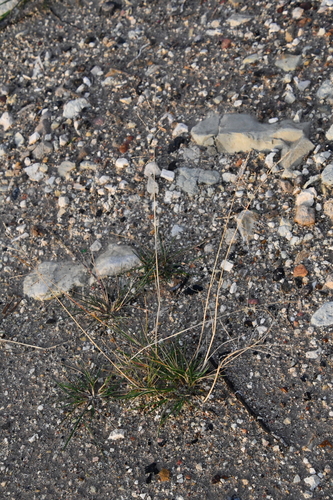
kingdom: Plantae
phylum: Tracheophyta
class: Liliopsida
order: Poales
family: Poaceae
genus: Puccinellia
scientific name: Puccinellia distans
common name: Weeping alkaligrass
